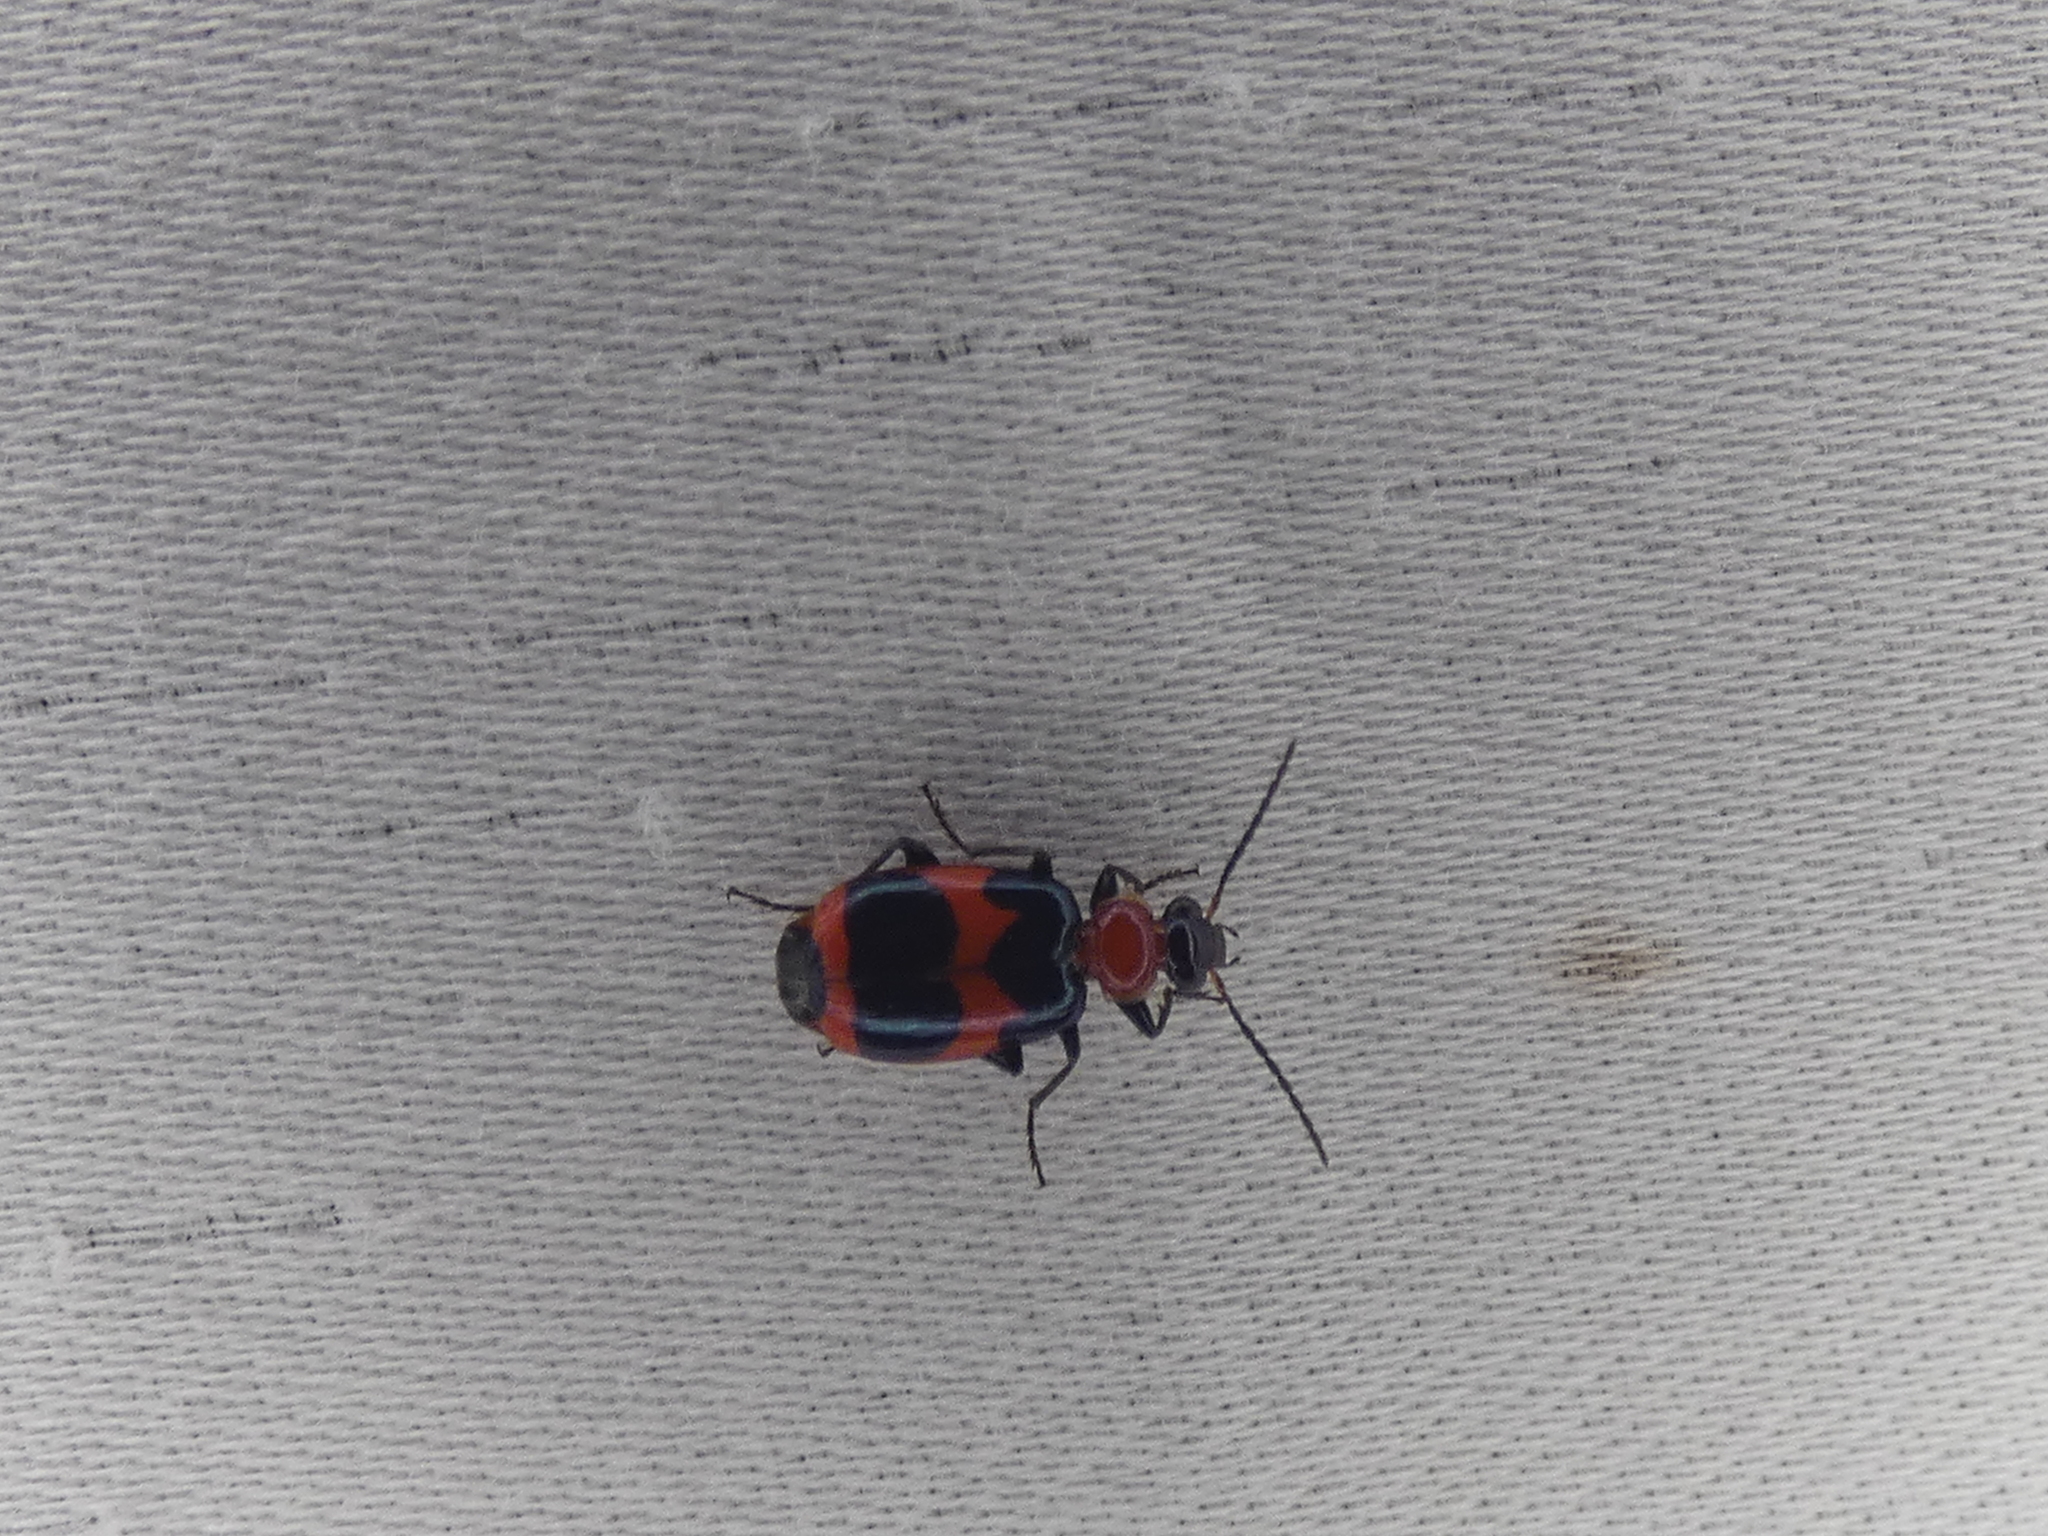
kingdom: Animalia
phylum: Arthropoda
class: Insecta
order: Coleoptera
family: Carabidae
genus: Lebia
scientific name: Lebia bitaeniata
